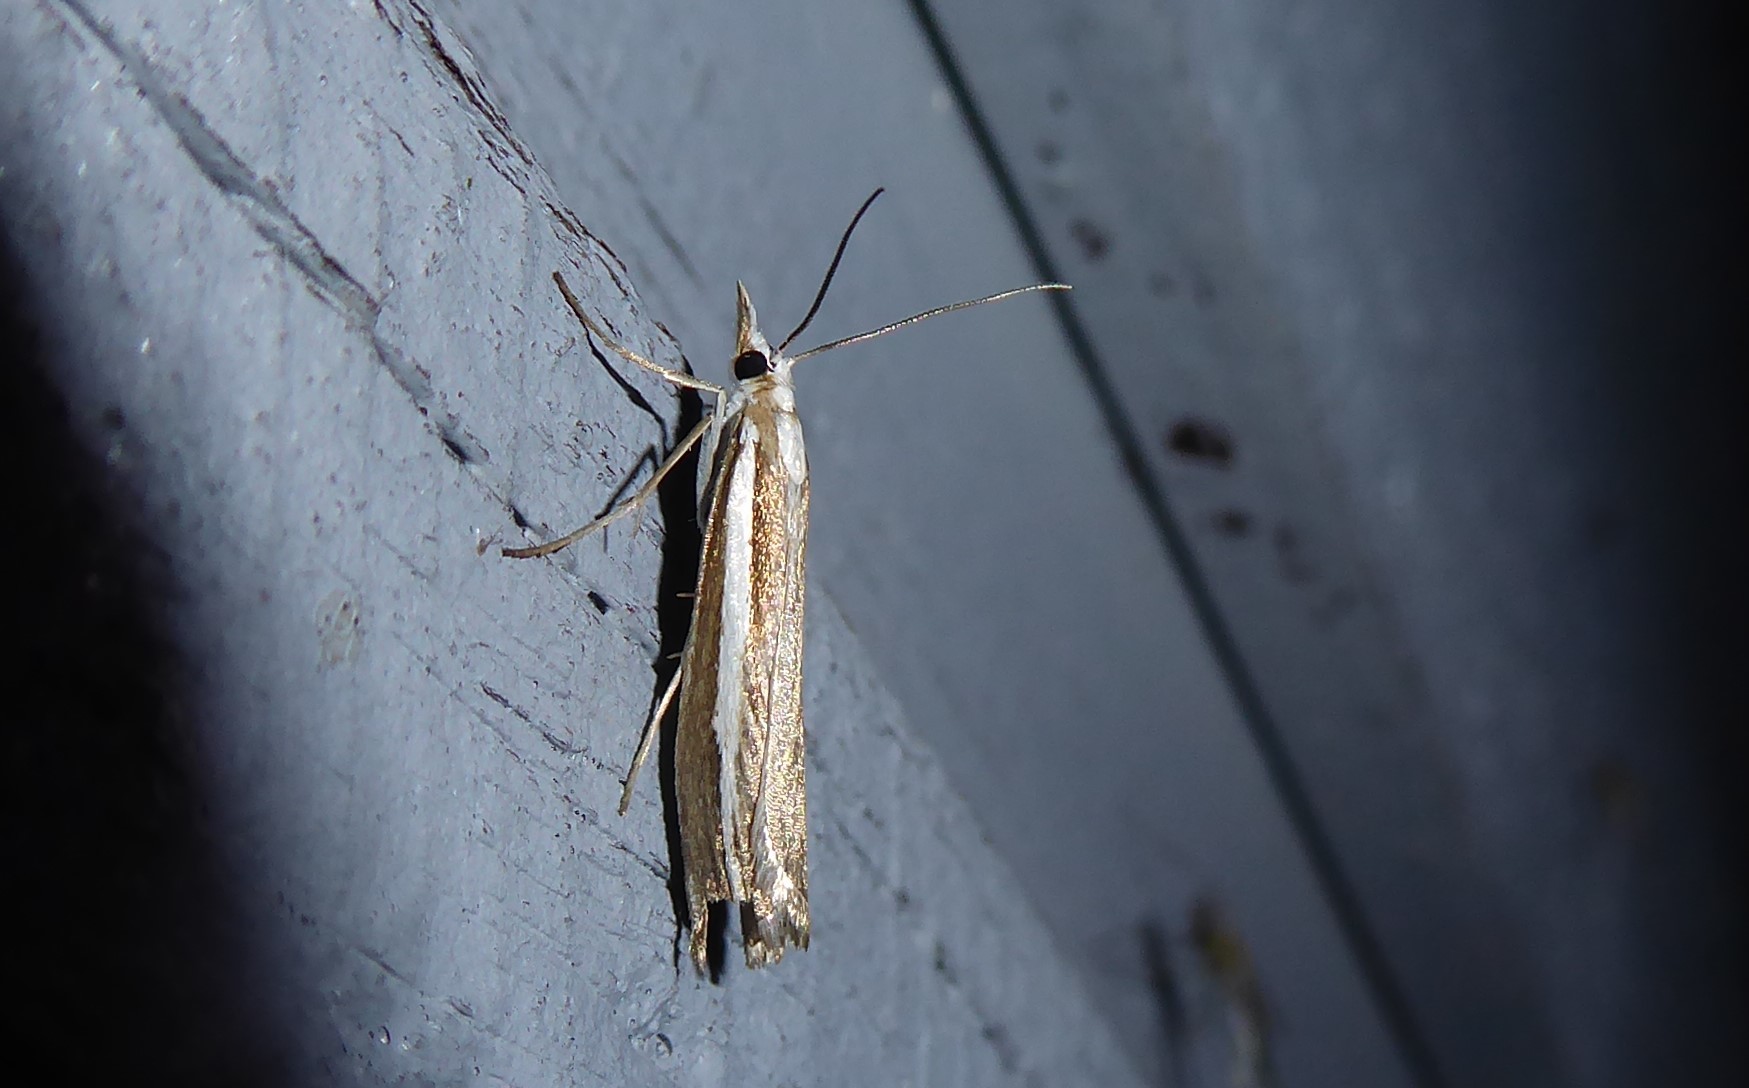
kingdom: Animalia
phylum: Arthropoda
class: Insecta
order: Lepidoptera
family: Crambidae
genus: Orocrambus
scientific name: Orocrambus vittellus
